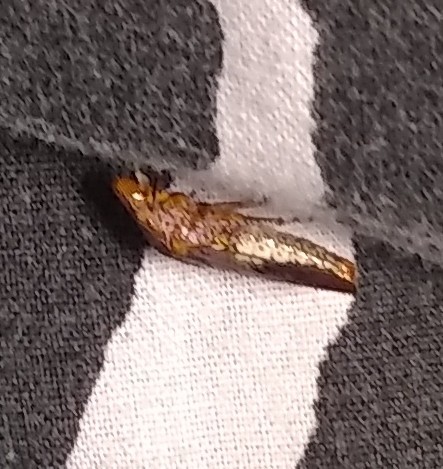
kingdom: Animalia
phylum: Arthropoda
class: Insecta
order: Hemiptera
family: Cicadellidae
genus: Homalodisca
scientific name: Homalodisca vitripennis
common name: Glassy-winged sharpshooter
